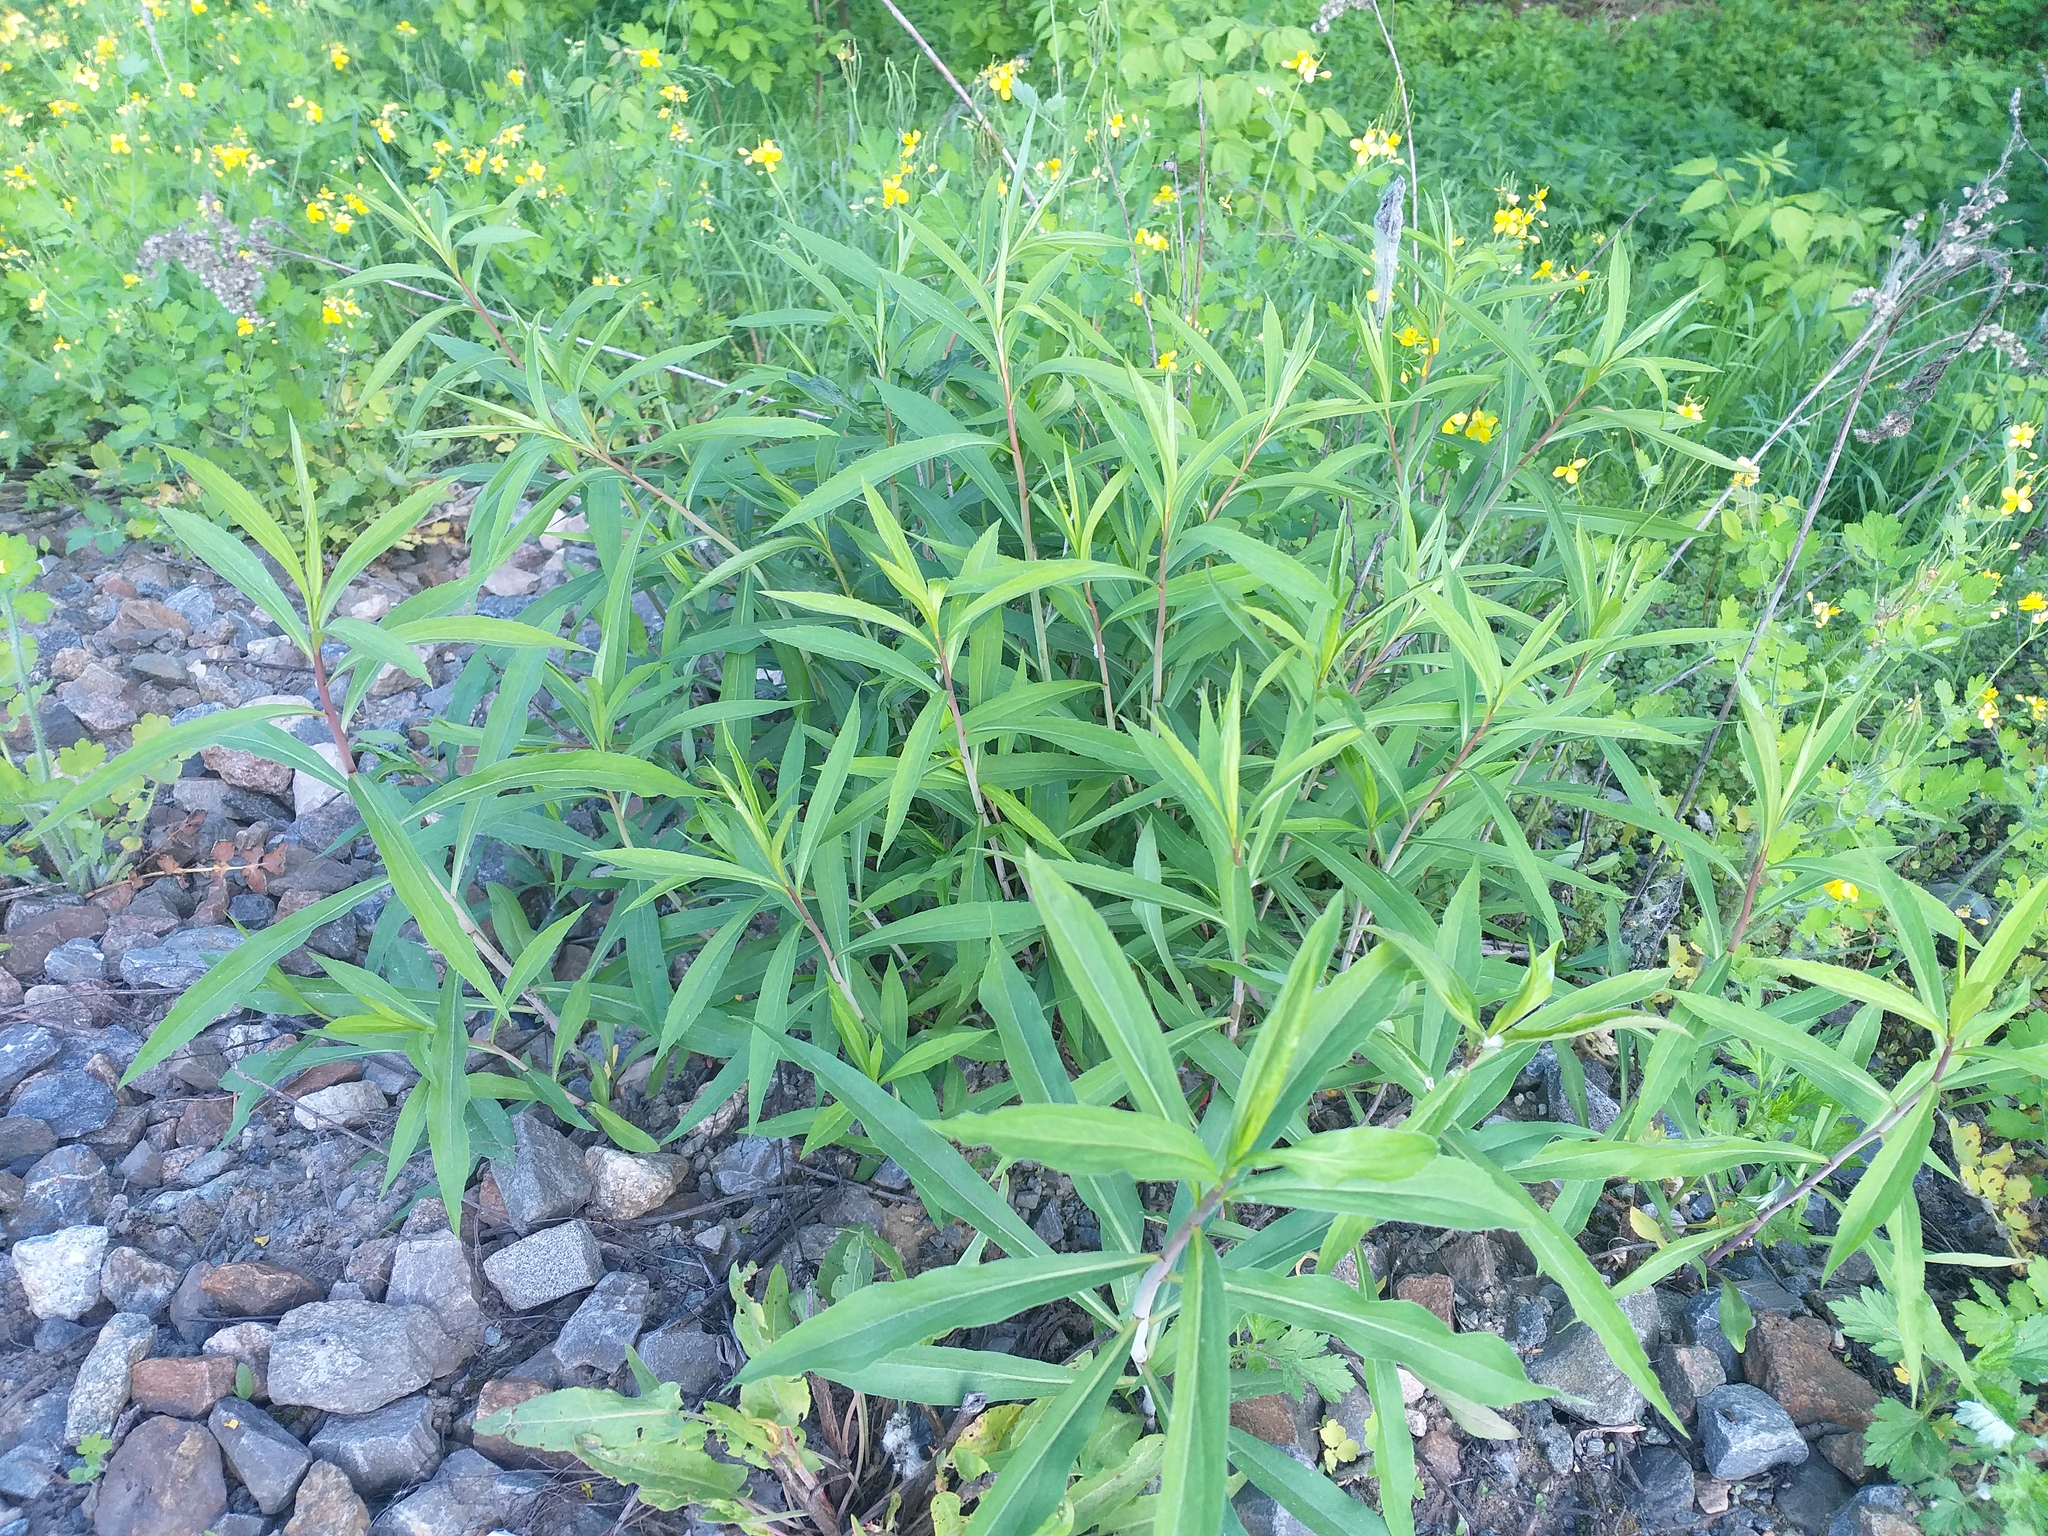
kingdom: Plantae
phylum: Tracheophyta
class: Magnoliopsida
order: Asterales
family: Asteraceae
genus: Solidago
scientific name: Solidago gigantea
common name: Giant goldenrod
